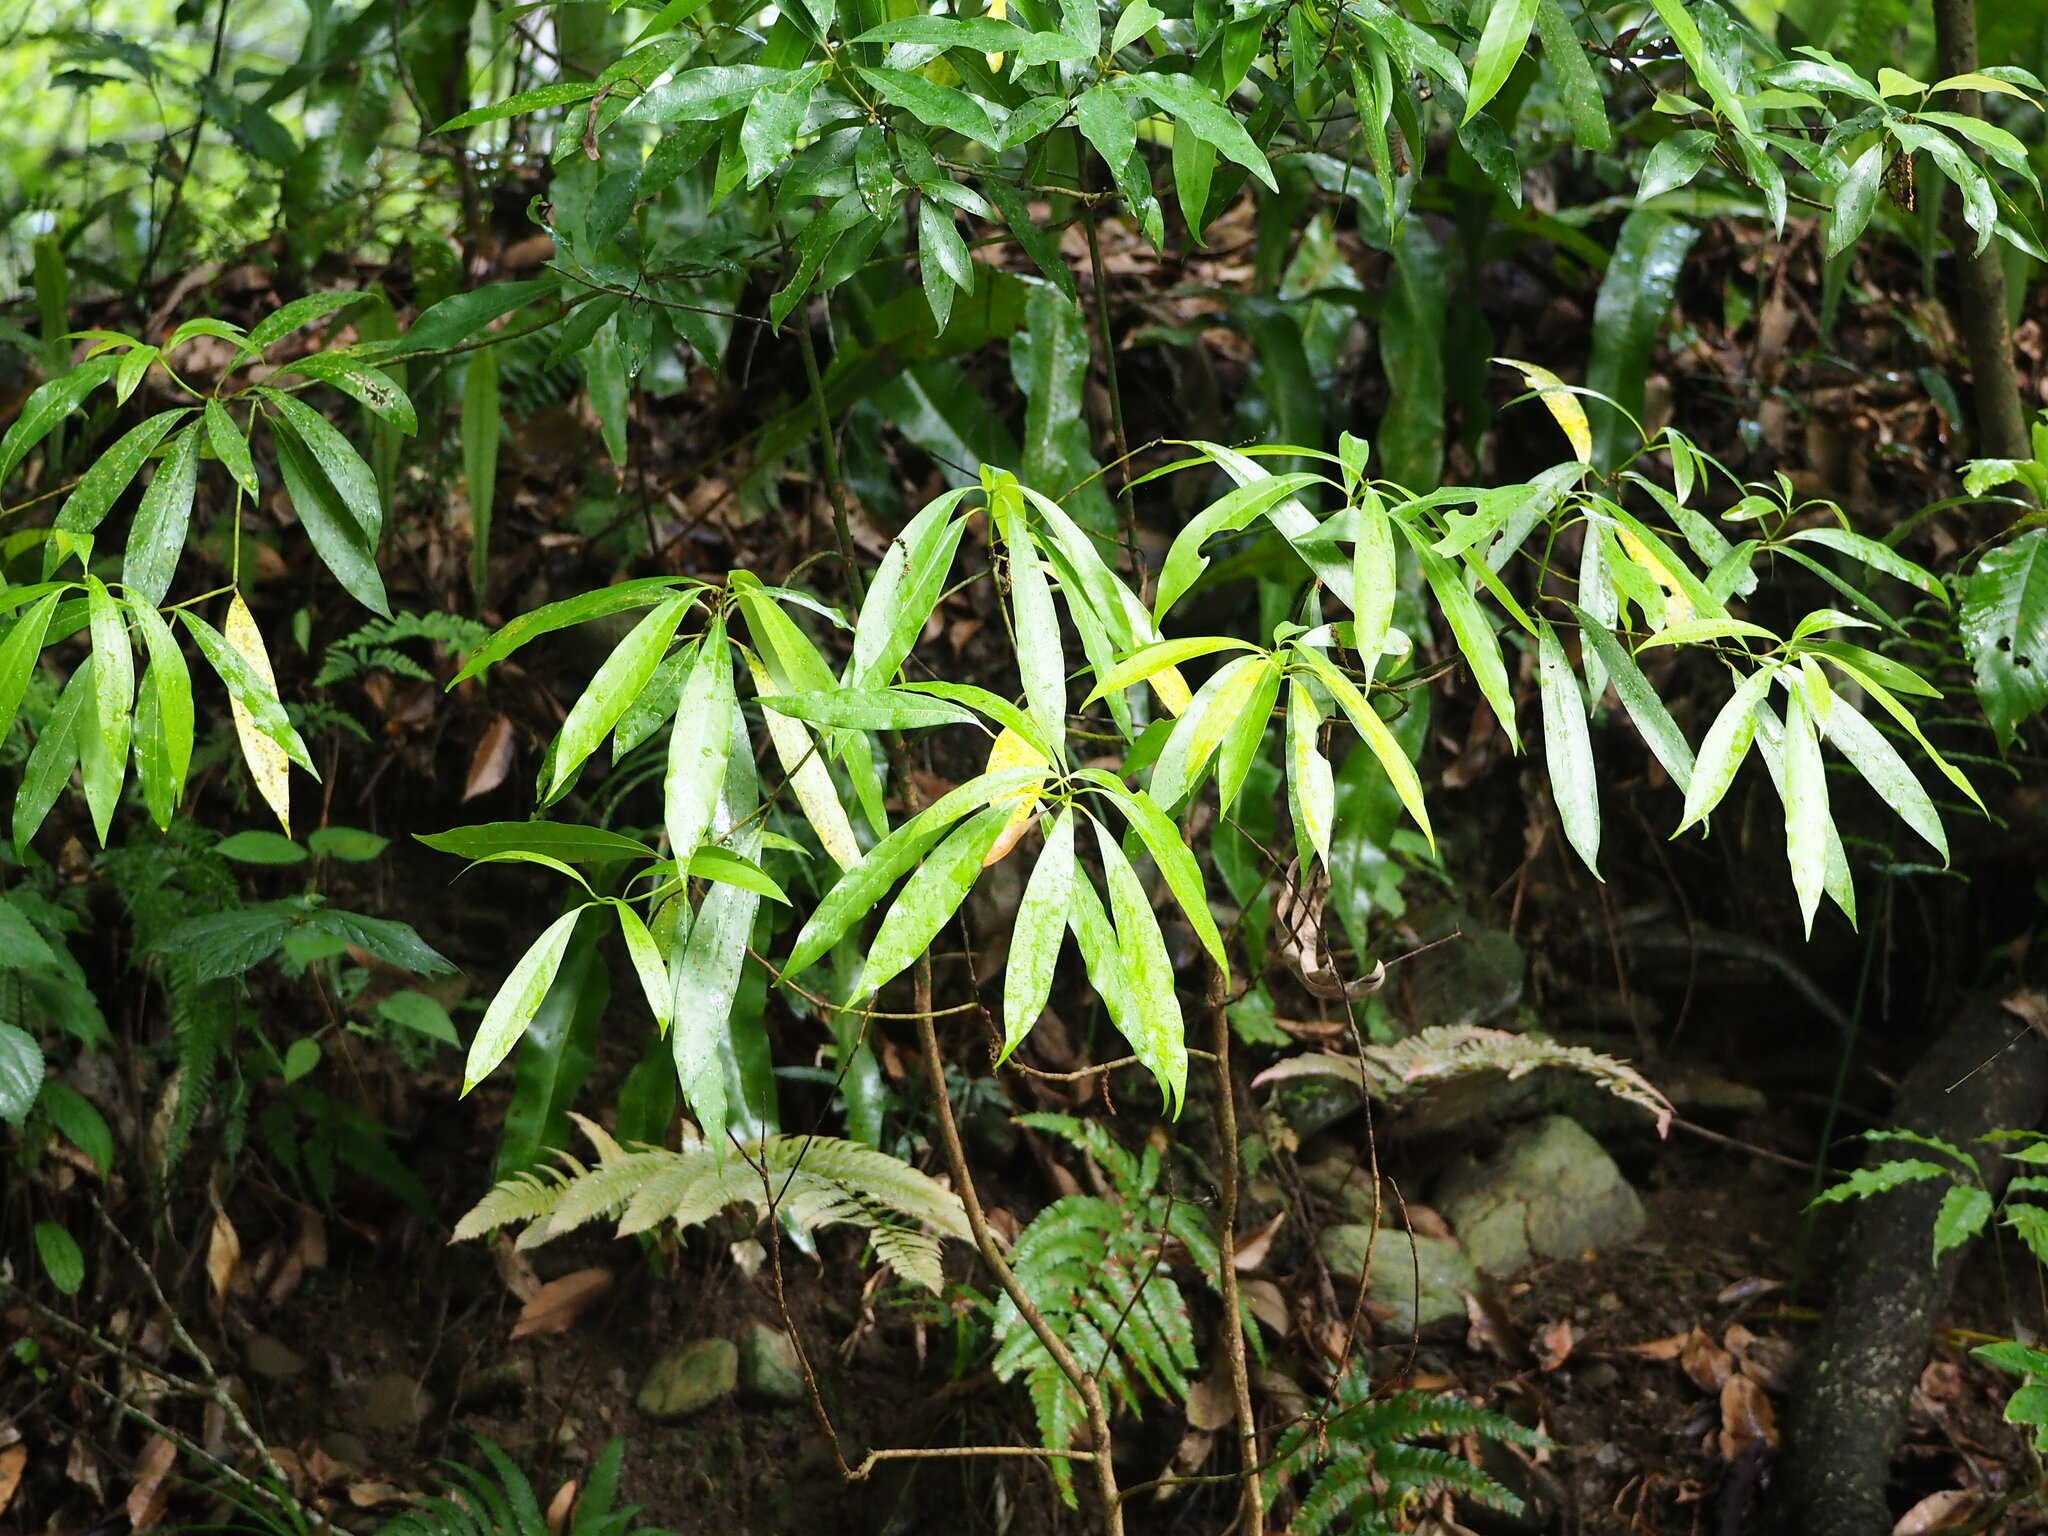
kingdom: Plantae
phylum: Tracheophyta
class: Magnoliopsida
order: Laurales
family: Lauraceae
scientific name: Lauraceae
